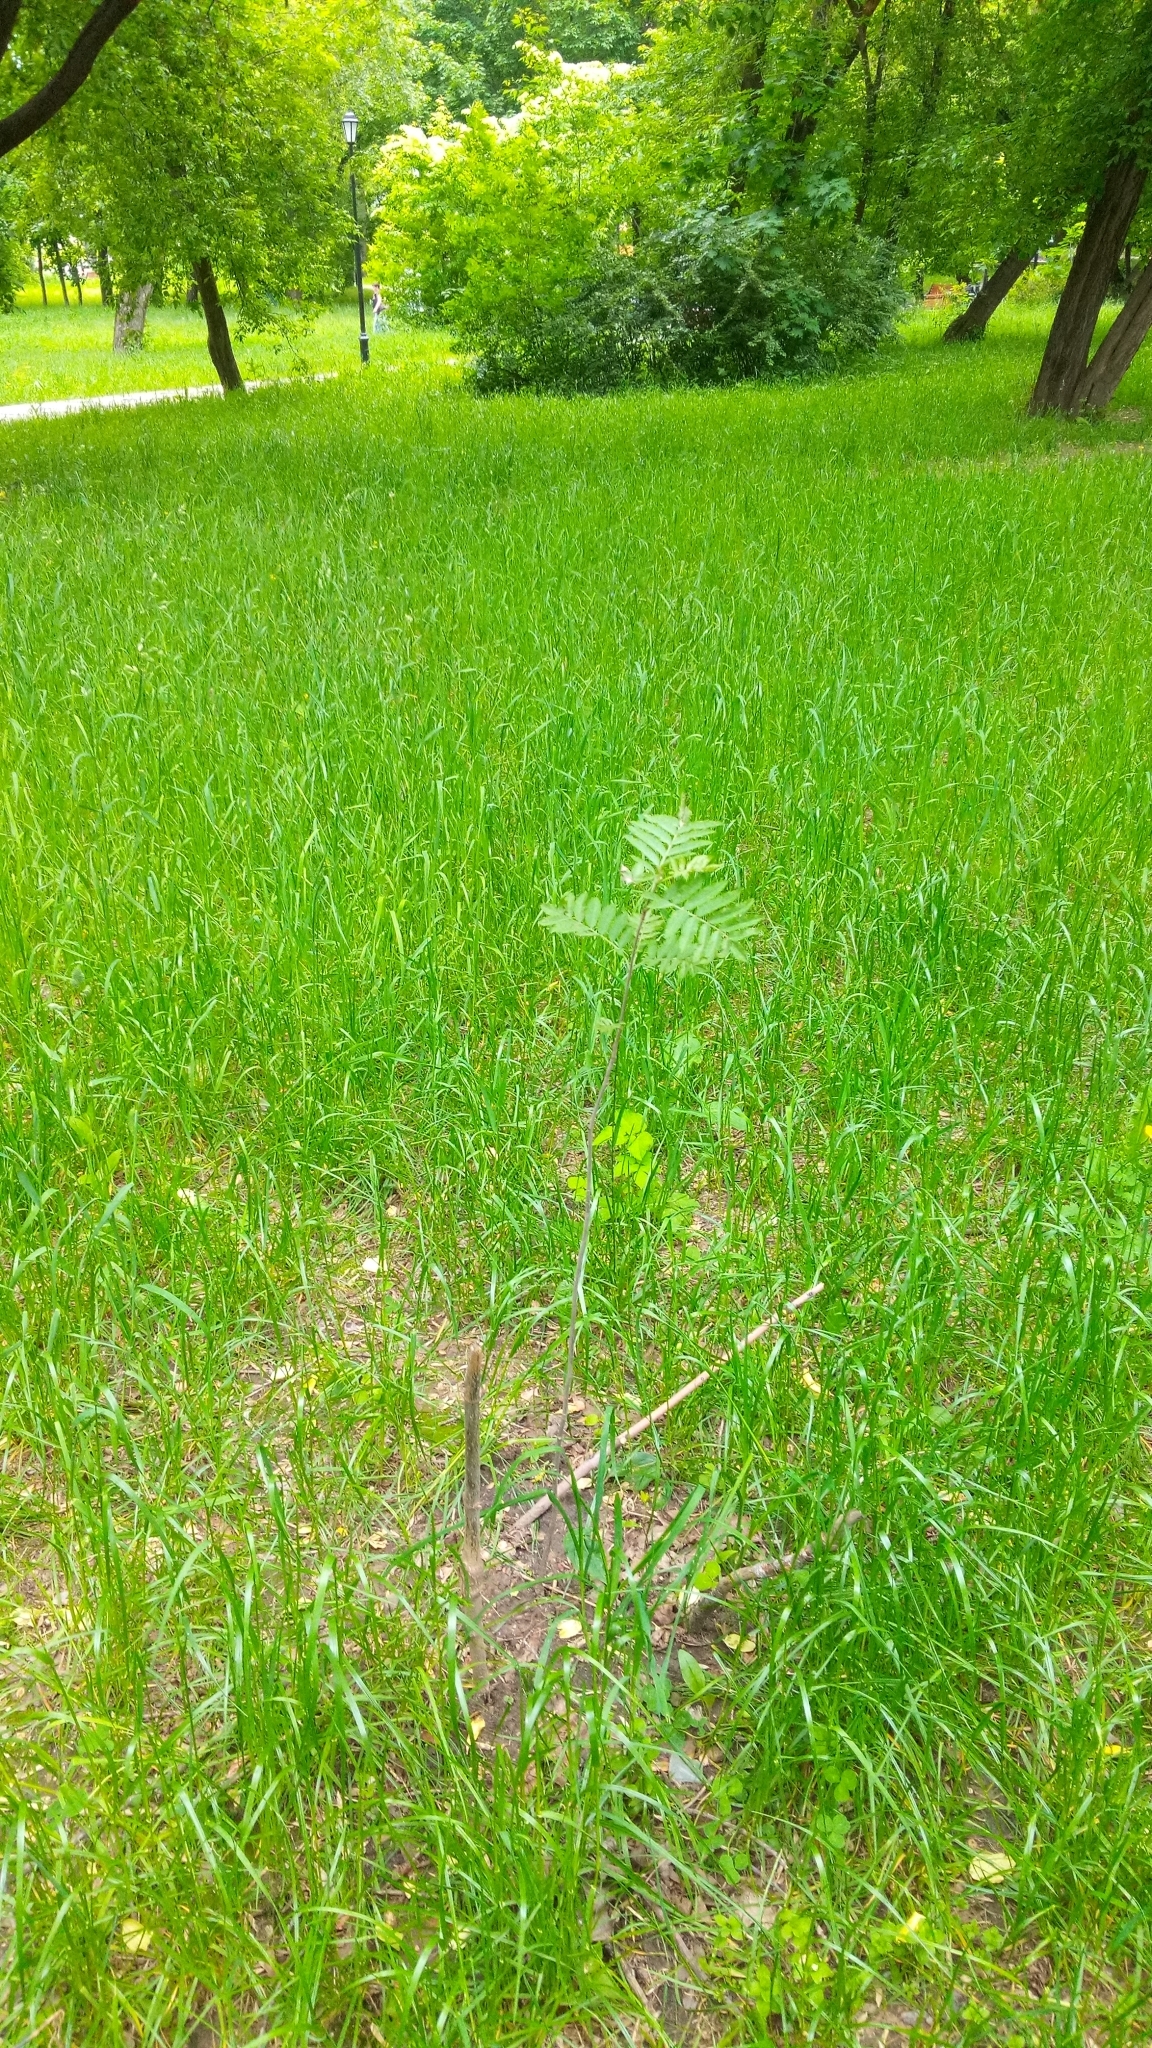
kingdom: Plantae
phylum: Tracheophyta
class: Magnoliopsida
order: Rosales
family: Rosaceae
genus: Sorbus
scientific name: Sorbus aucuparia
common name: Rowan
